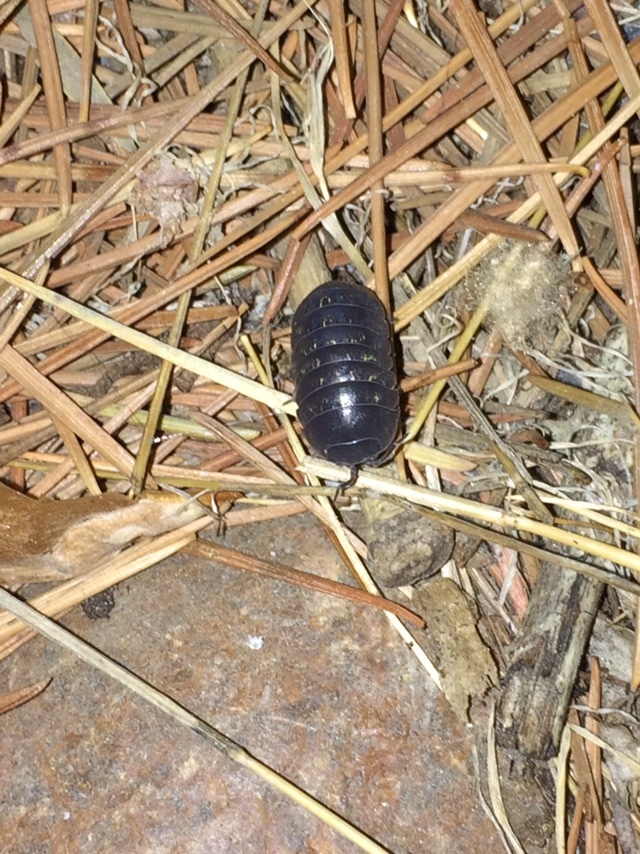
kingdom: Animalia
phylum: Arthropoda
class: Malacostraca
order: Isopoda
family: Armadillidiidae
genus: Armadillidium
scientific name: Armadillidium vulgare
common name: Common pill woodlouse
